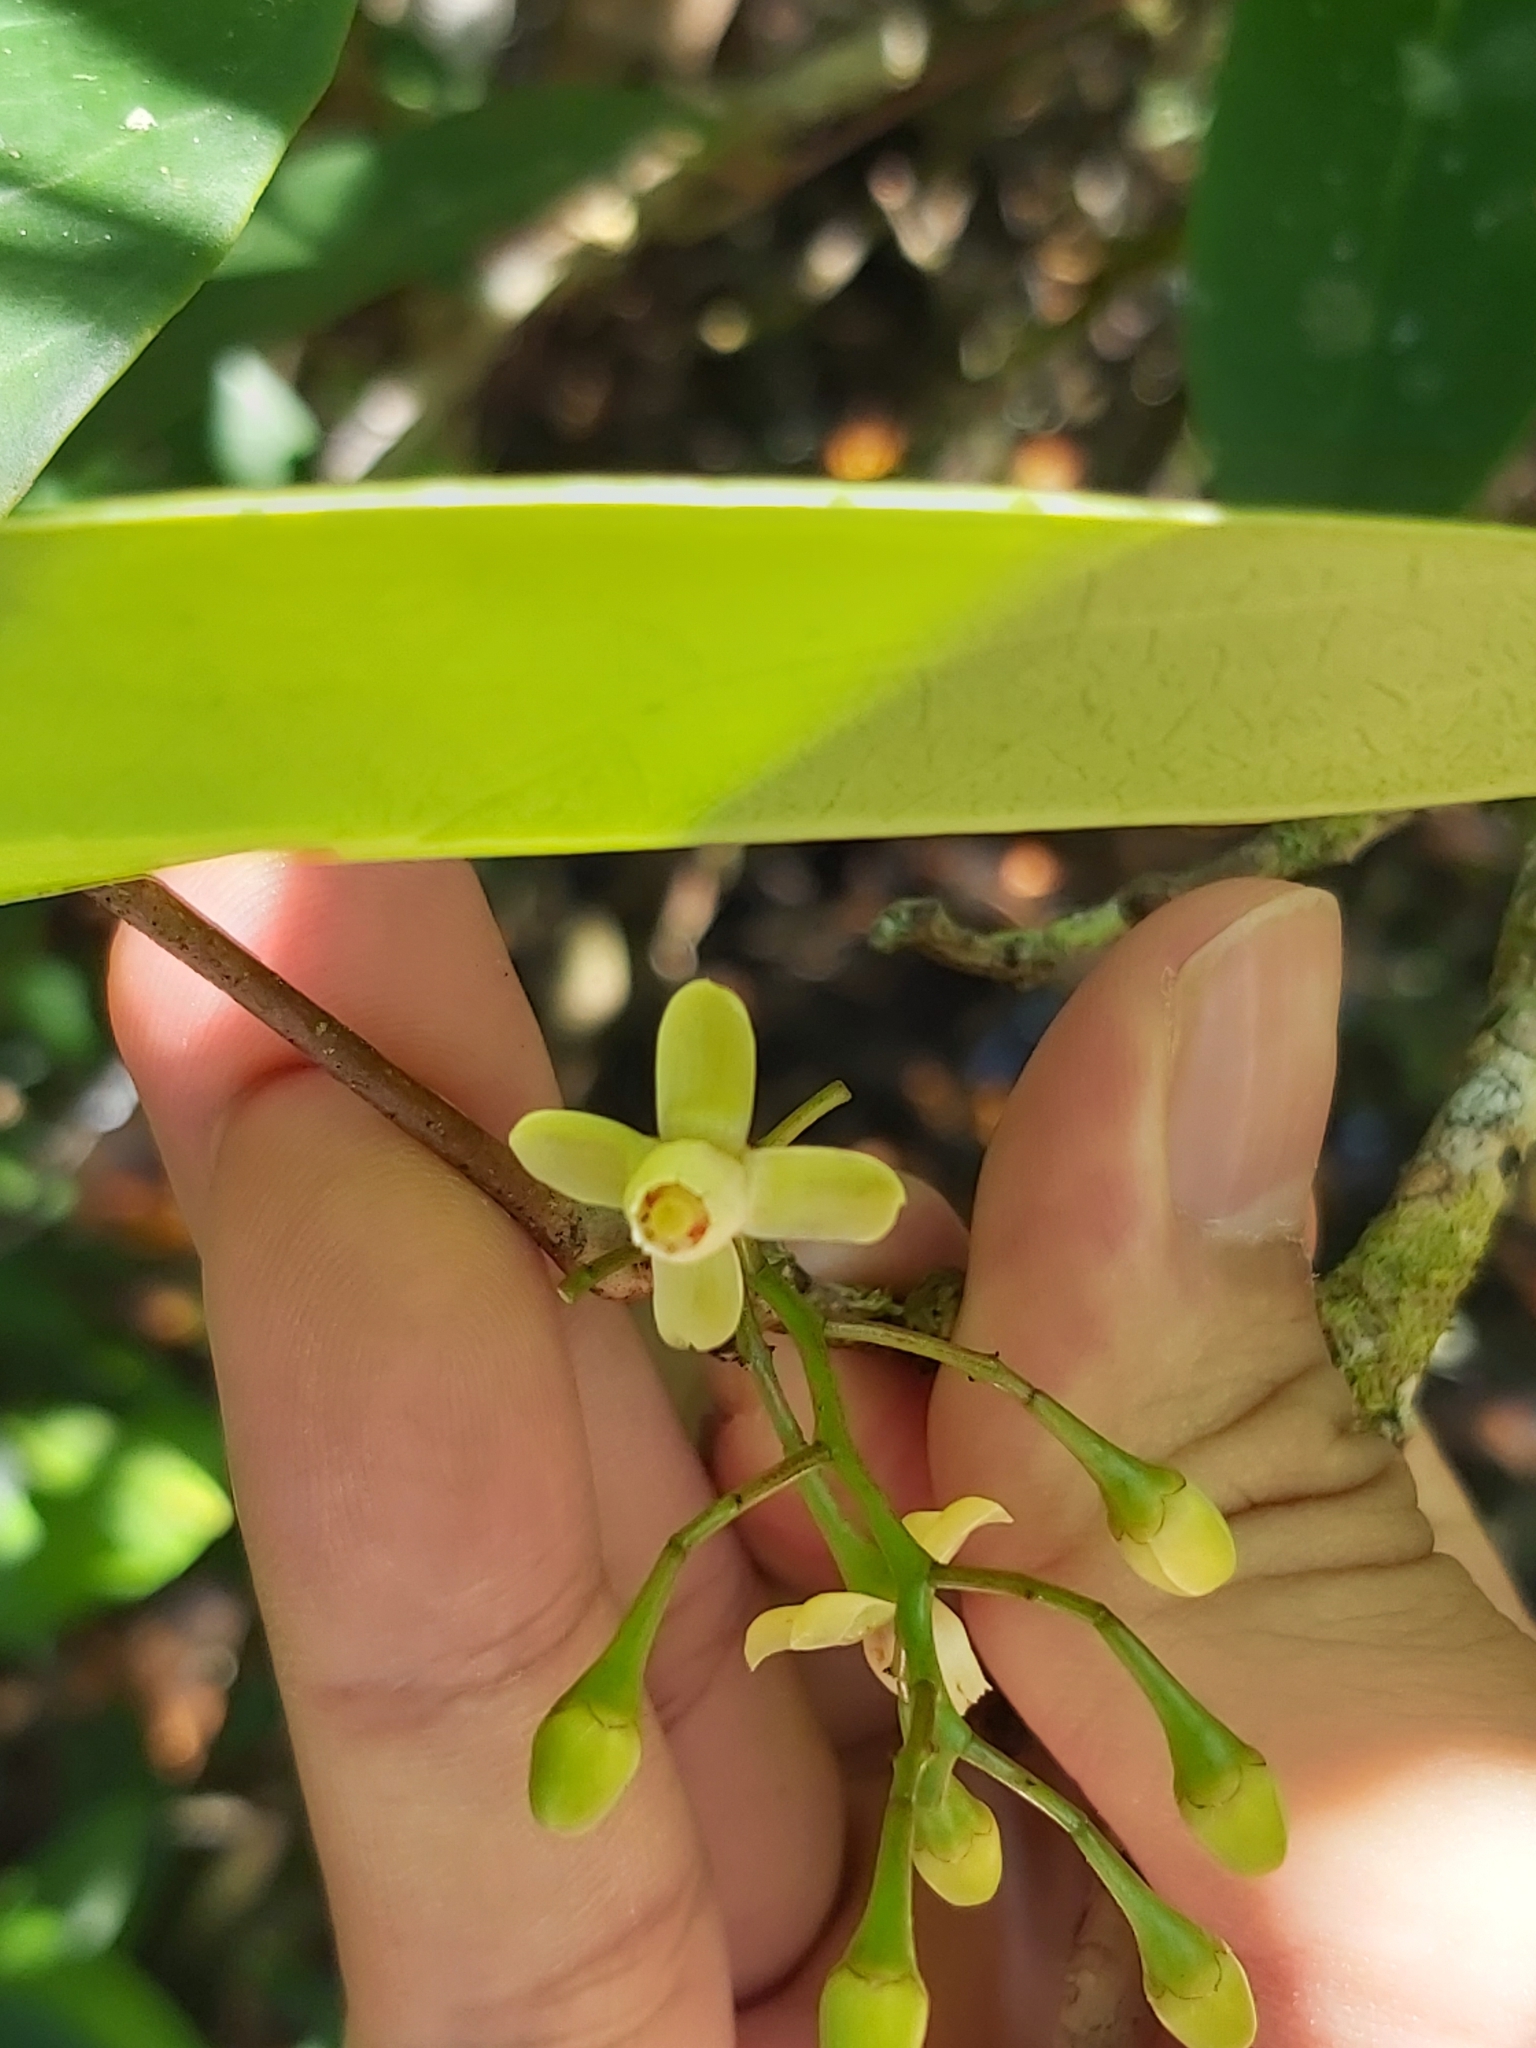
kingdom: Plantae
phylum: Tracheophyta
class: Magnoliopsida
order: Sapindales
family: Meliaceae
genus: Xylocarpus
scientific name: Xylocarpus granatum
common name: Apple mangrove
